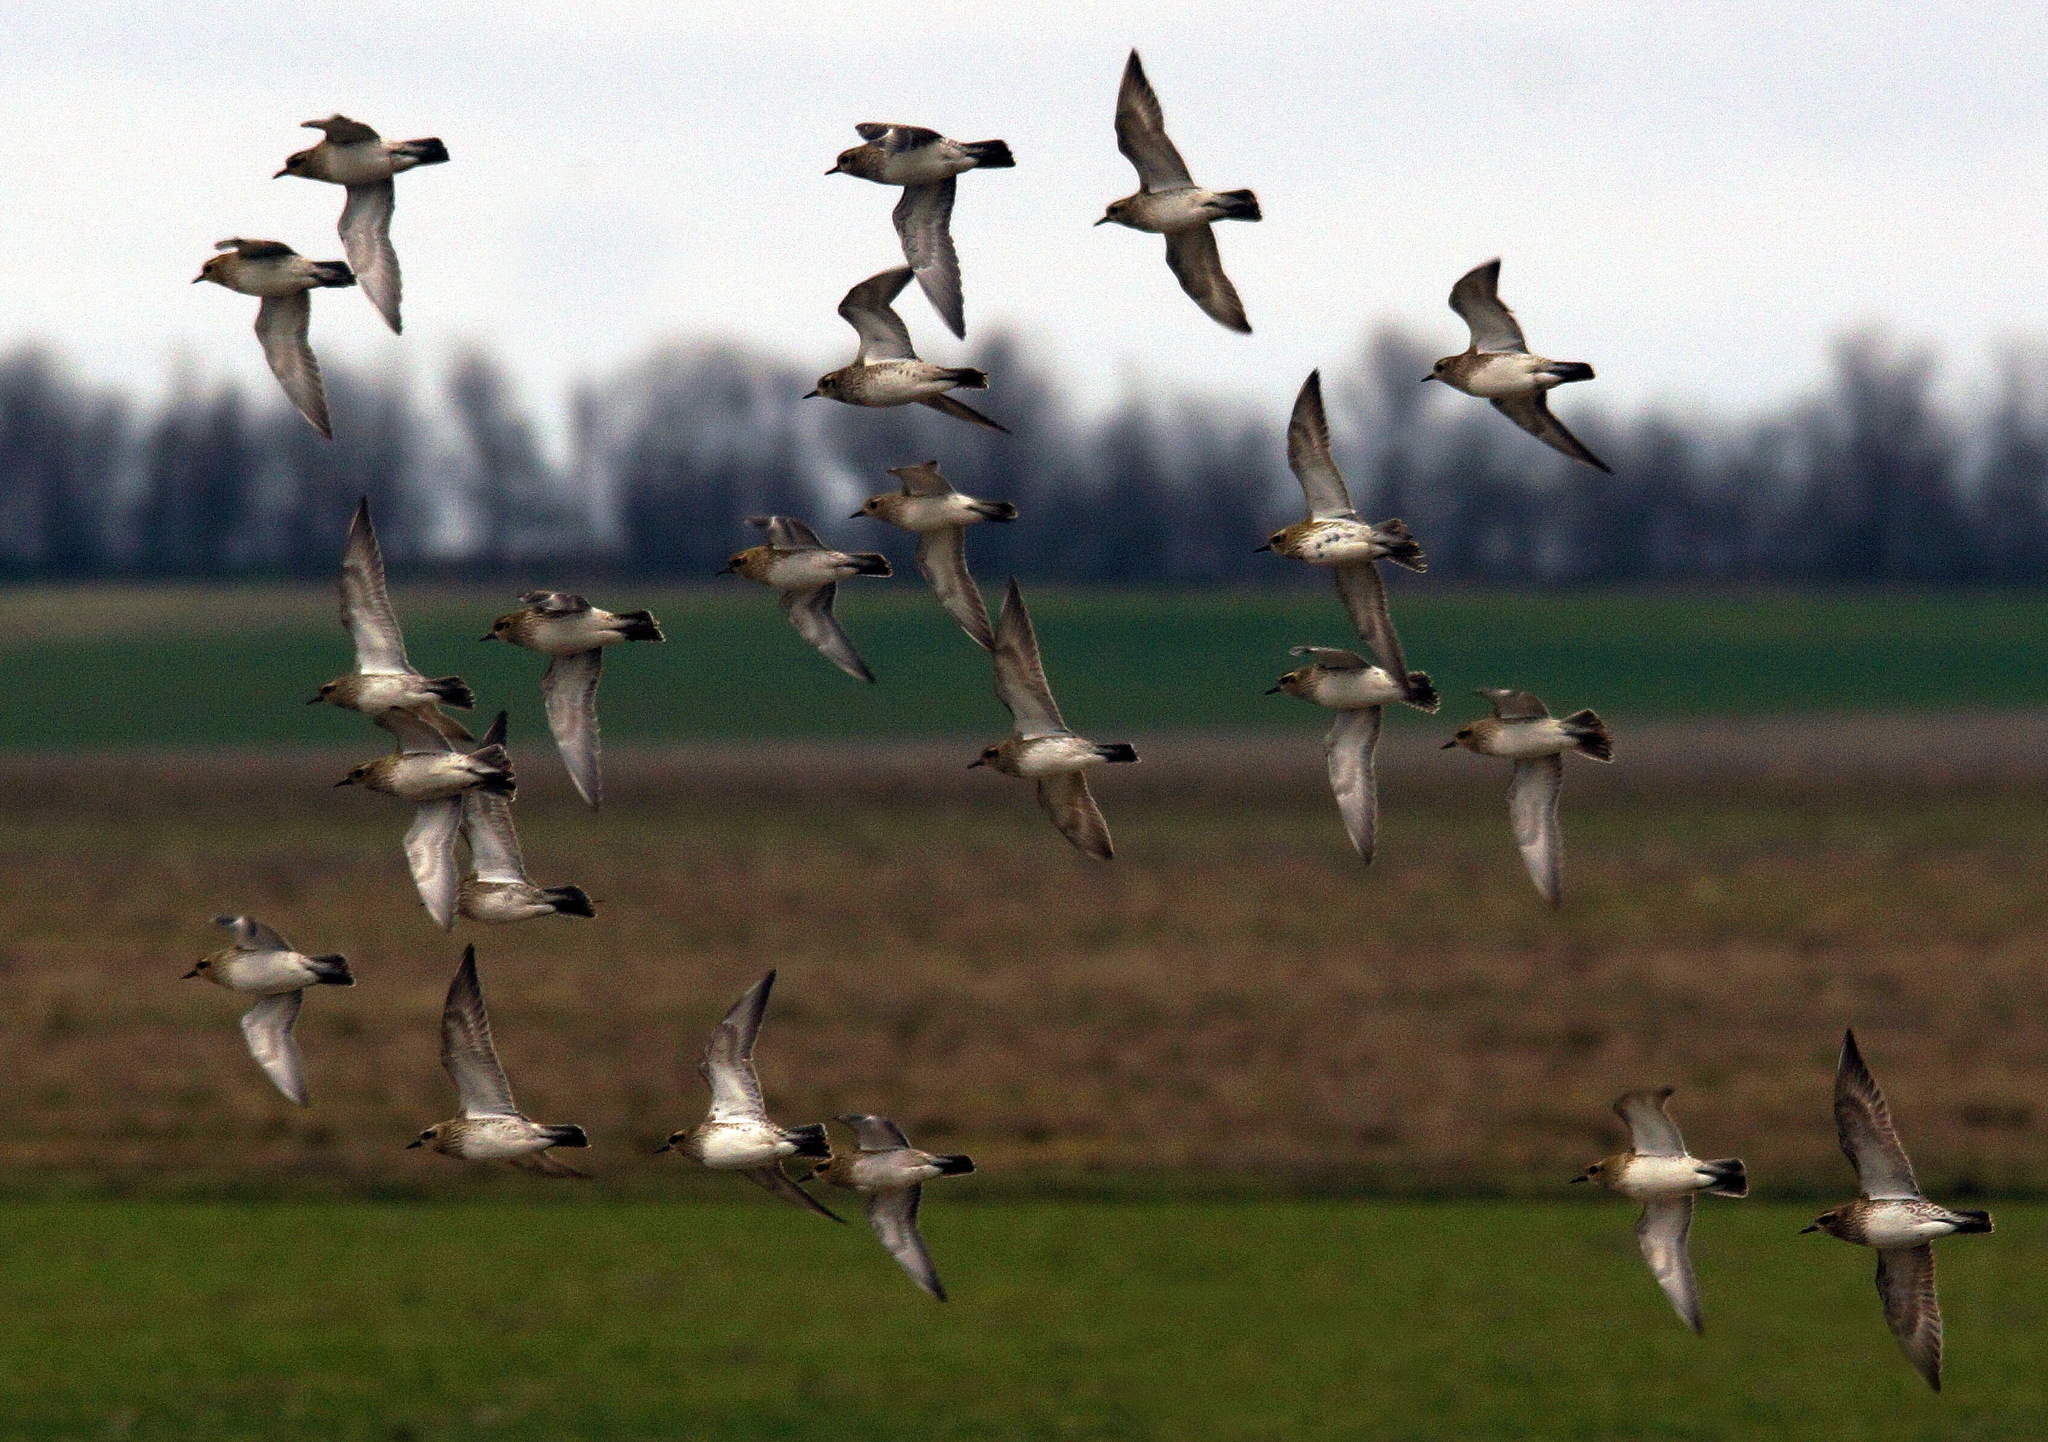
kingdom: Animalia
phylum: Chordata
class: Aves
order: Charadriiformes
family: Charadriidae
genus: Pluvialis
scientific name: Pluvialis apricaria
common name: European golden plover
